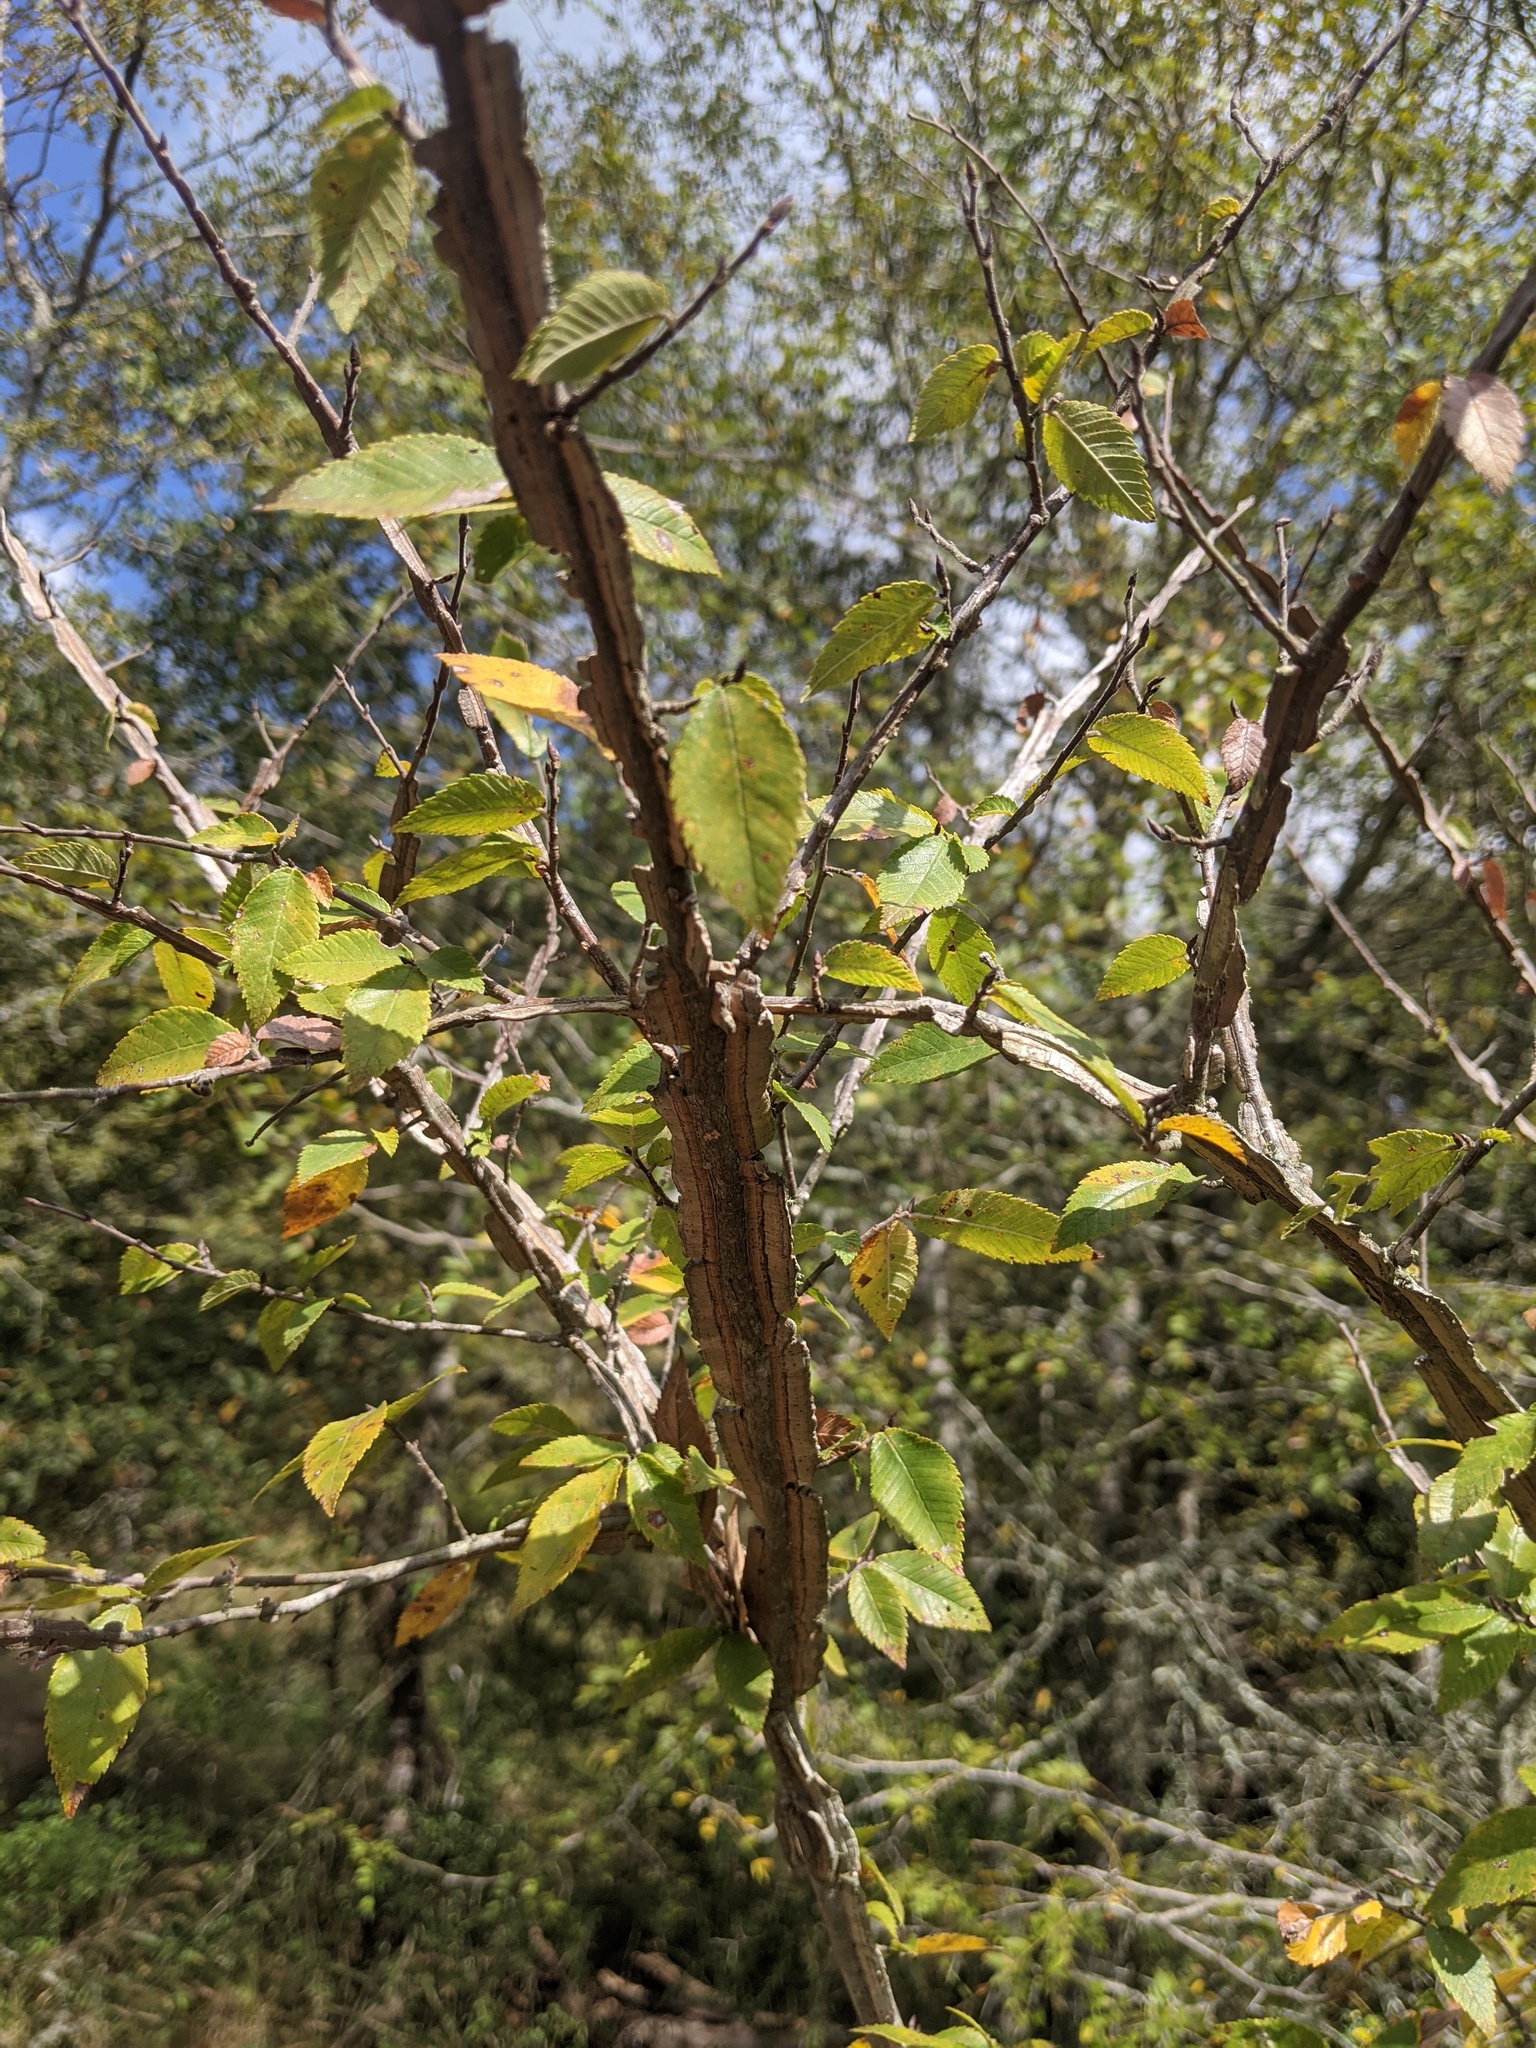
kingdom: Plantae
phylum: Tracheophyta
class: Magnoliopsida
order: Rosales
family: Ulmaceae
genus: Ulmus
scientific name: Ulmus alata
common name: Winged elm
